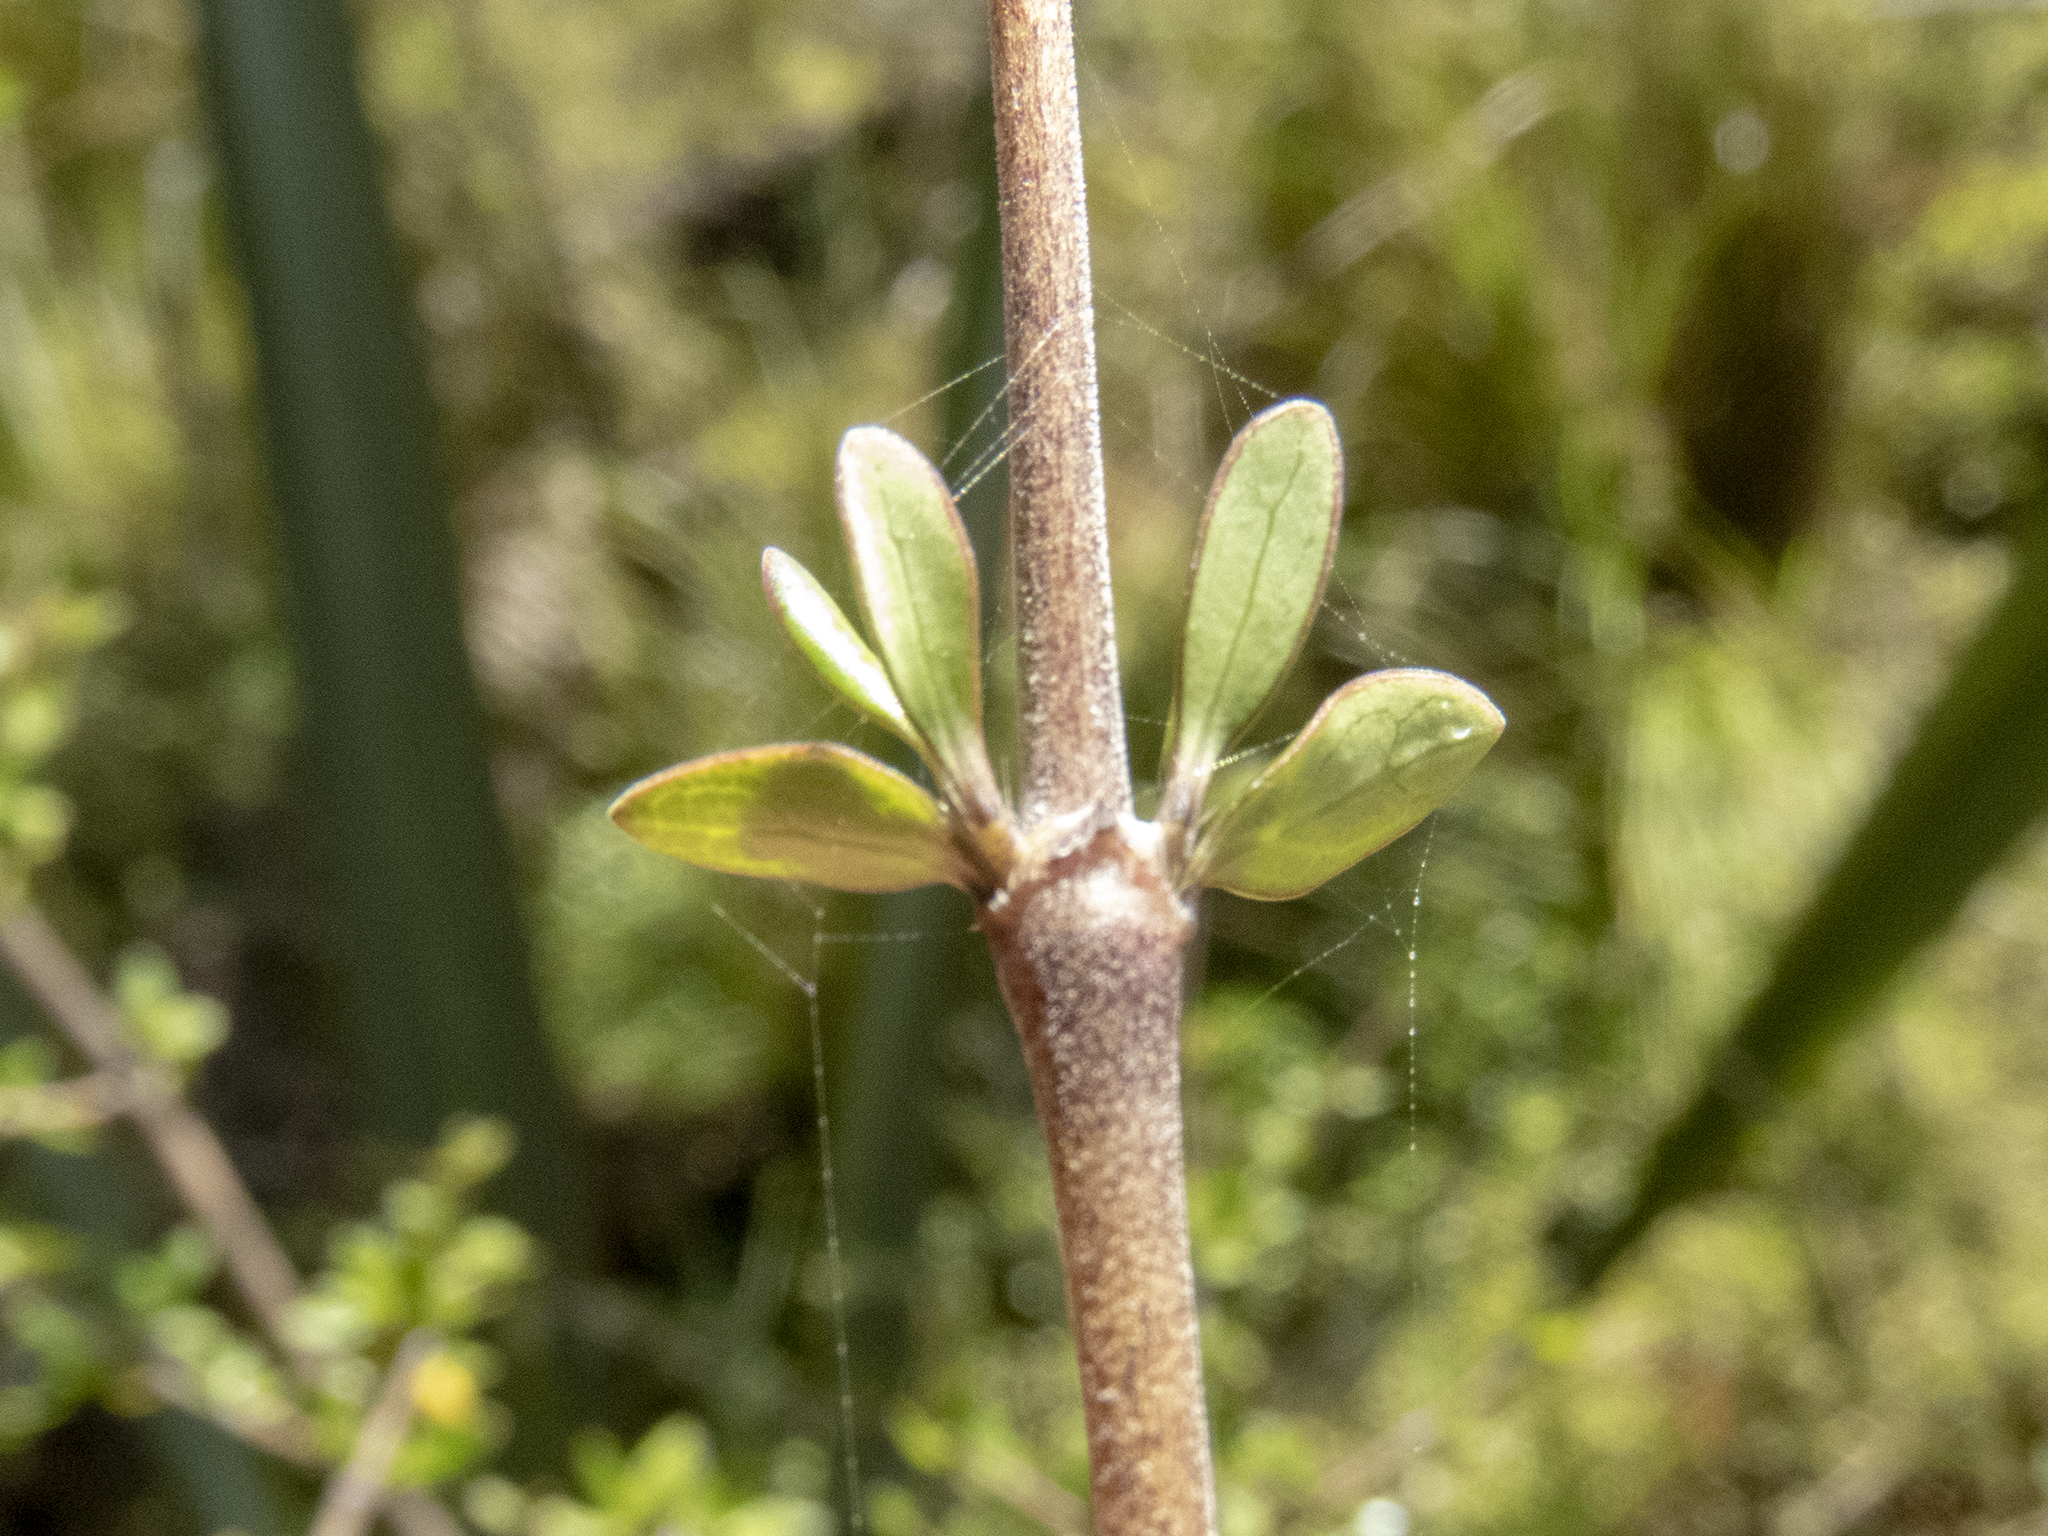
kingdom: Plantae
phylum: Tracheophyta
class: Magnoliopsida
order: Gentianales
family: Rubiaceae
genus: Coprosma
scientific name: Coprosma propinqua
